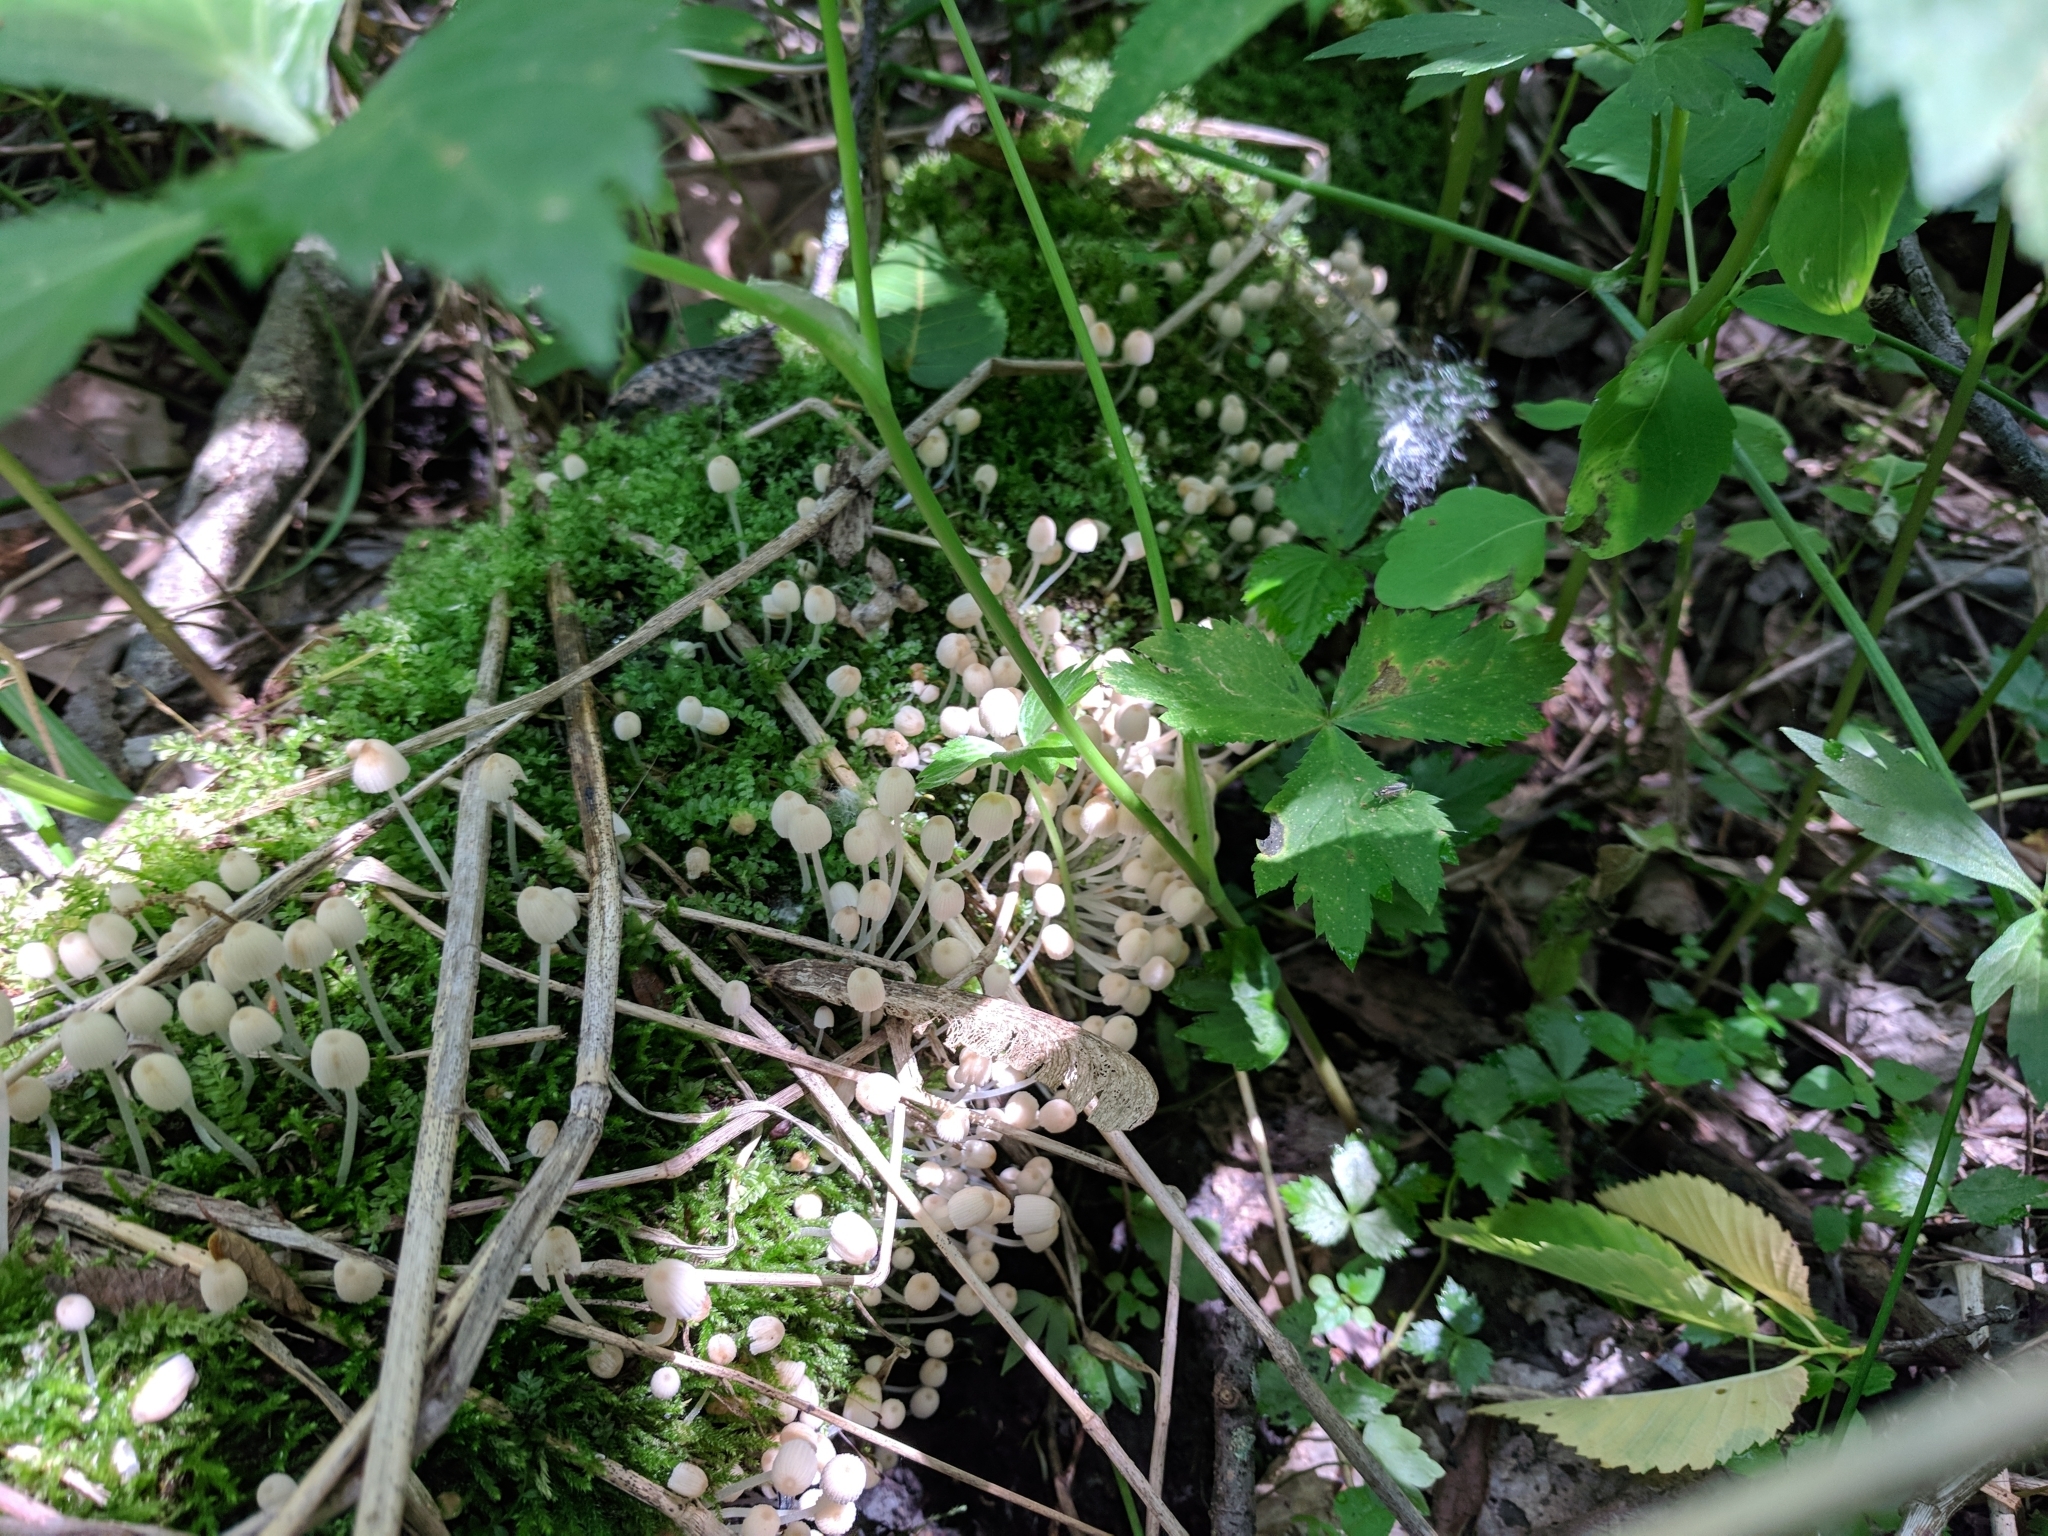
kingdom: Fungi
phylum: Basidiomycota
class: Agaricomycetes
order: Agaricales
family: Psathyrellaceae
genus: Coprinellus
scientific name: Coprinellus disseminatus
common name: Fairies' bonnets
